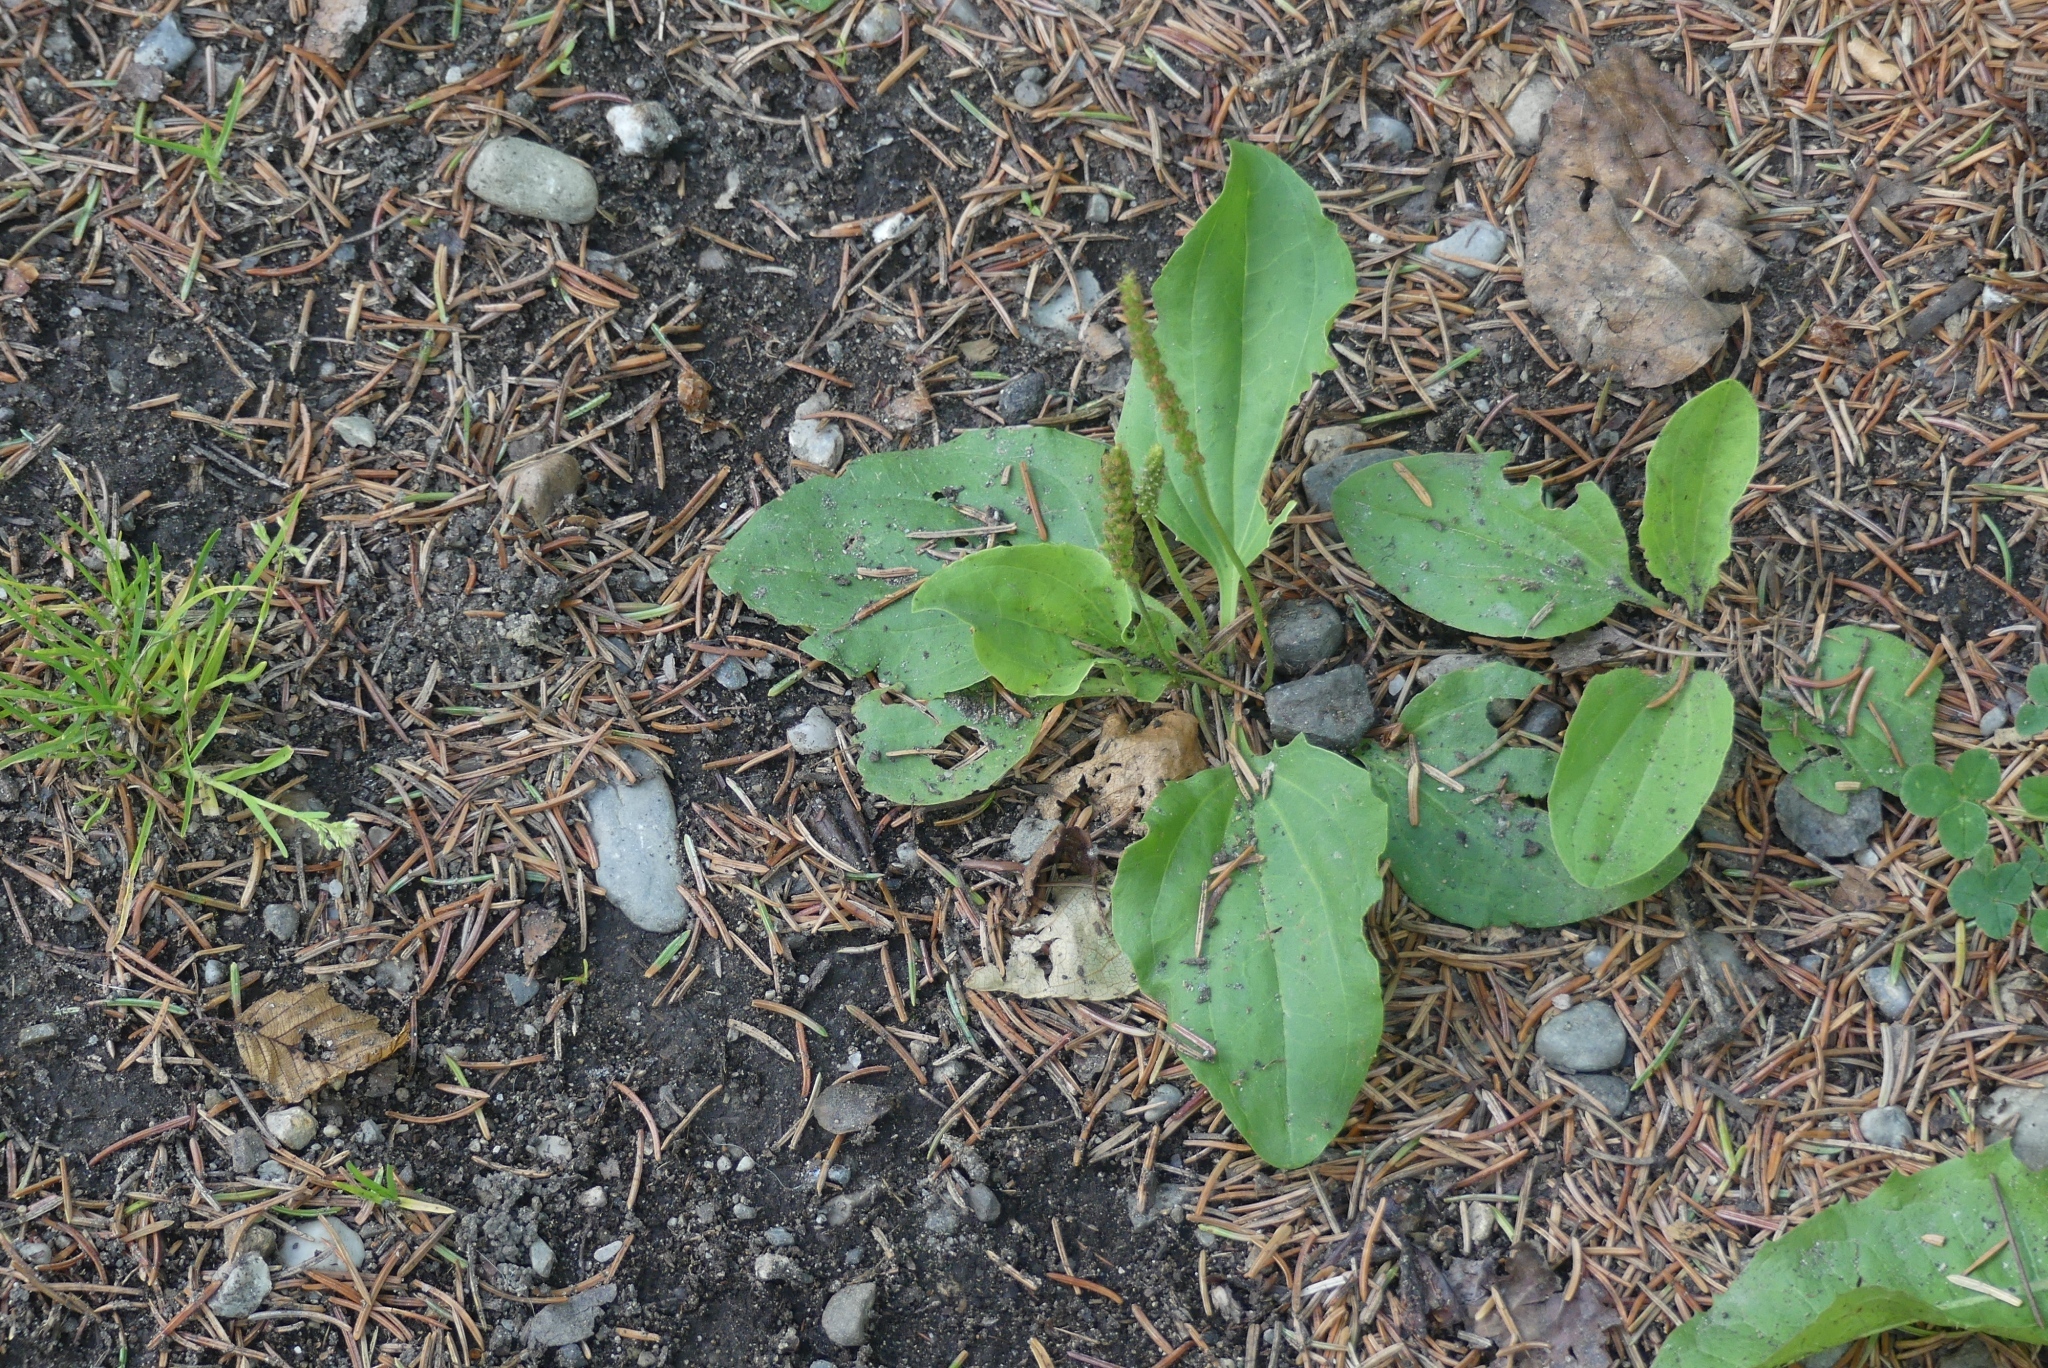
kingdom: Plantae
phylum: Tracheophyta
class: Magnoliopsida
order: Lamiales
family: Plantaginaceae
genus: Plantago
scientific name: Plantago major
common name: Common plantain
